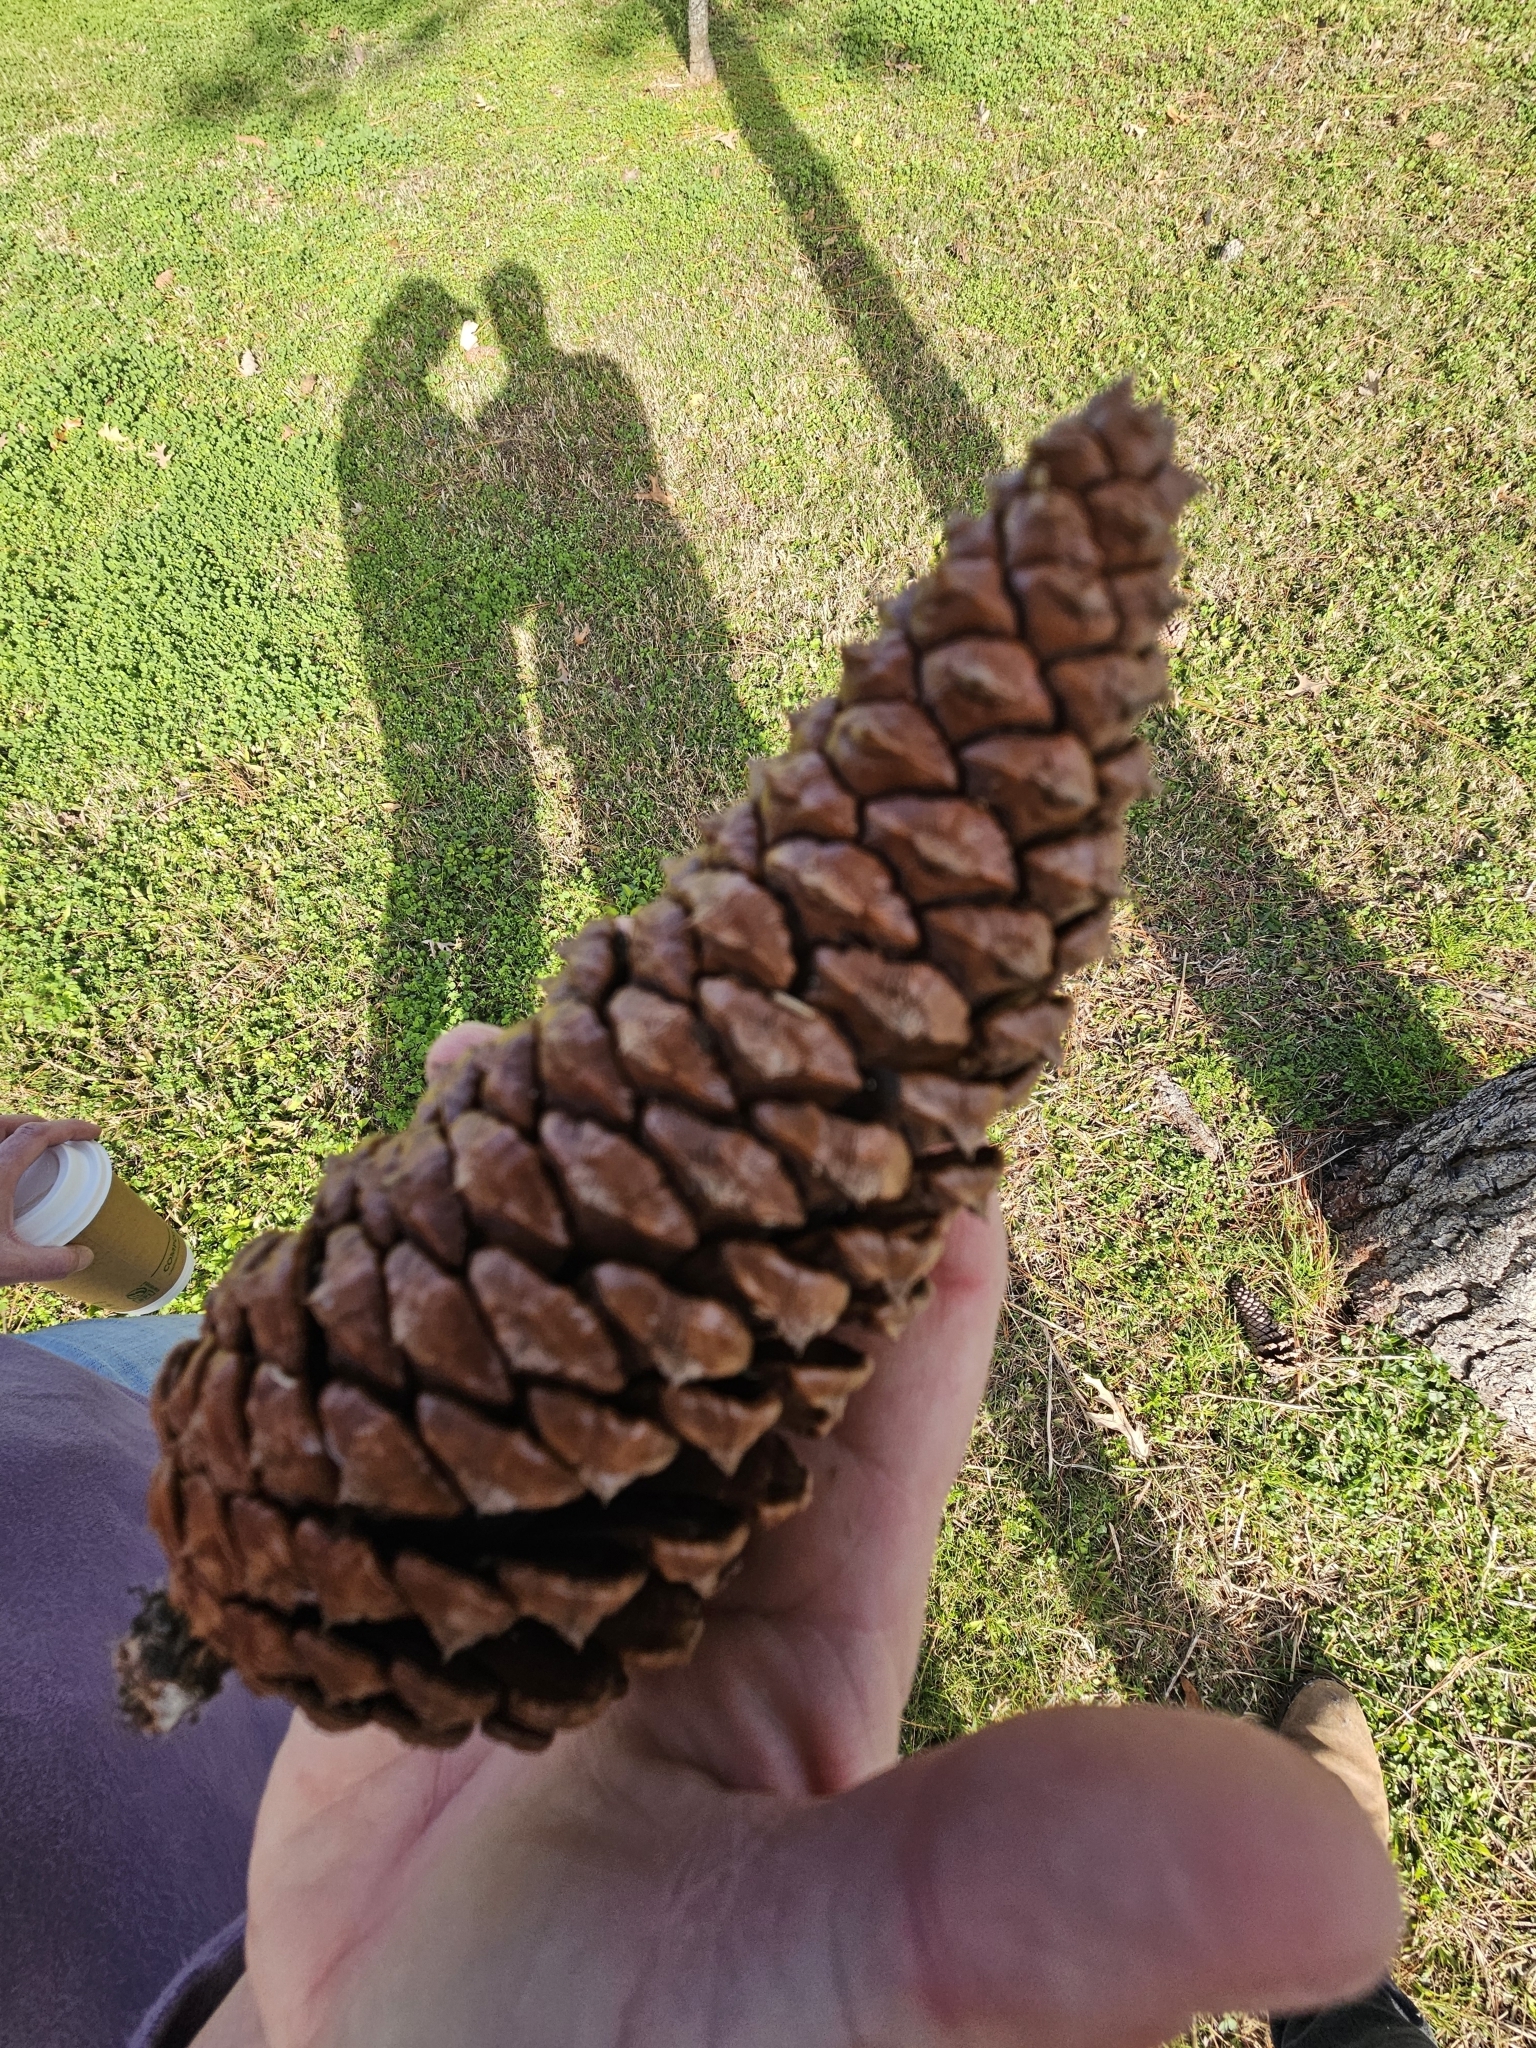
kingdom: Plantae
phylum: Tracheophyta
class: Pinopsida
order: Pinales
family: Pinaceae
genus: Pinus
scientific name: Pinus elliottii
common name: Slash pine
